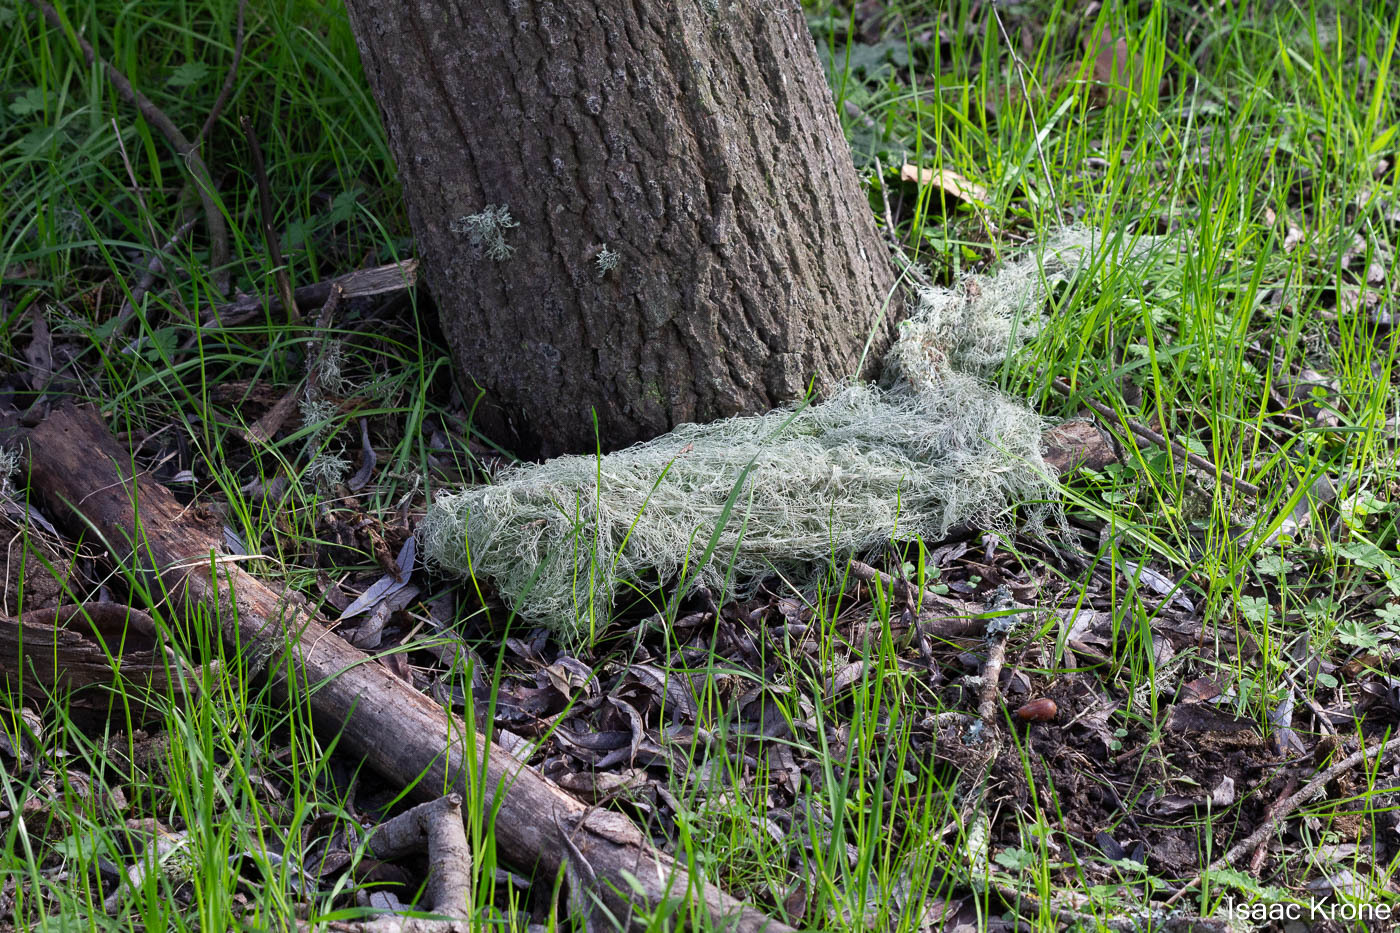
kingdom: Fungi
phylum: Ascomycota
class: Lecanoromycetes
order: Lecanorales
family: Ramalinaceae
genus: Ramalina
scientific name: Ramalina menziesii
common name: Lace lichen
